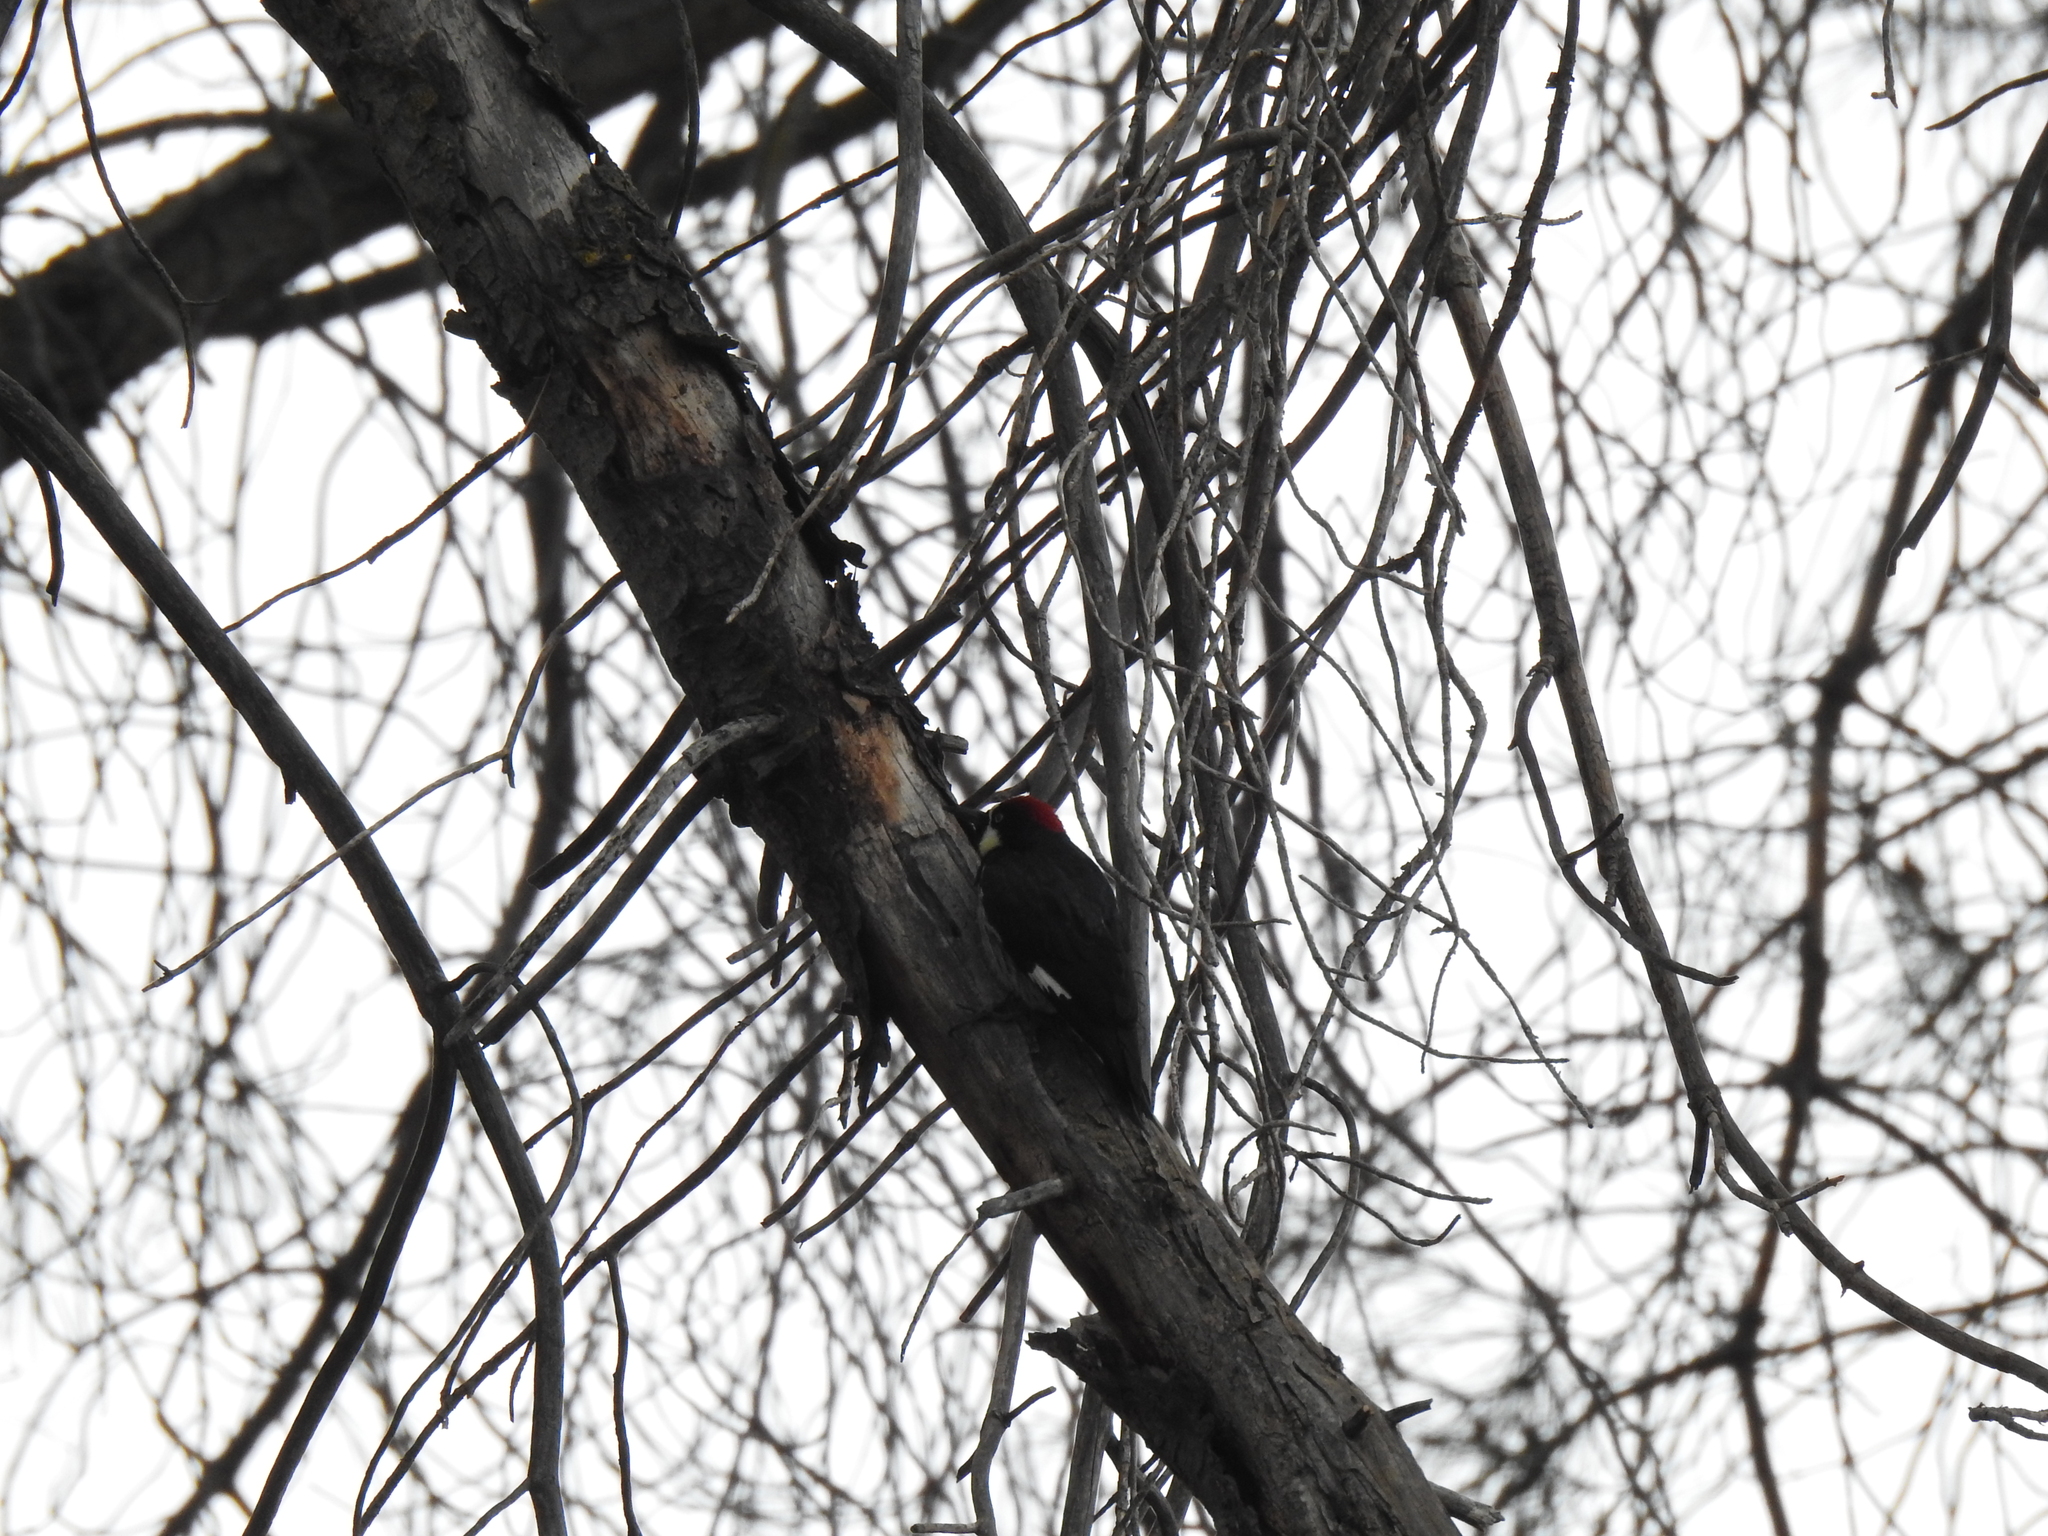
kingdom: Animalia
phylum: Chordata
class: Aves
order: Piciformes
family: Picidae
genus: Melanerpes
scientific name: Melanerpes formicivorus
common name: Acorn woodpecker
